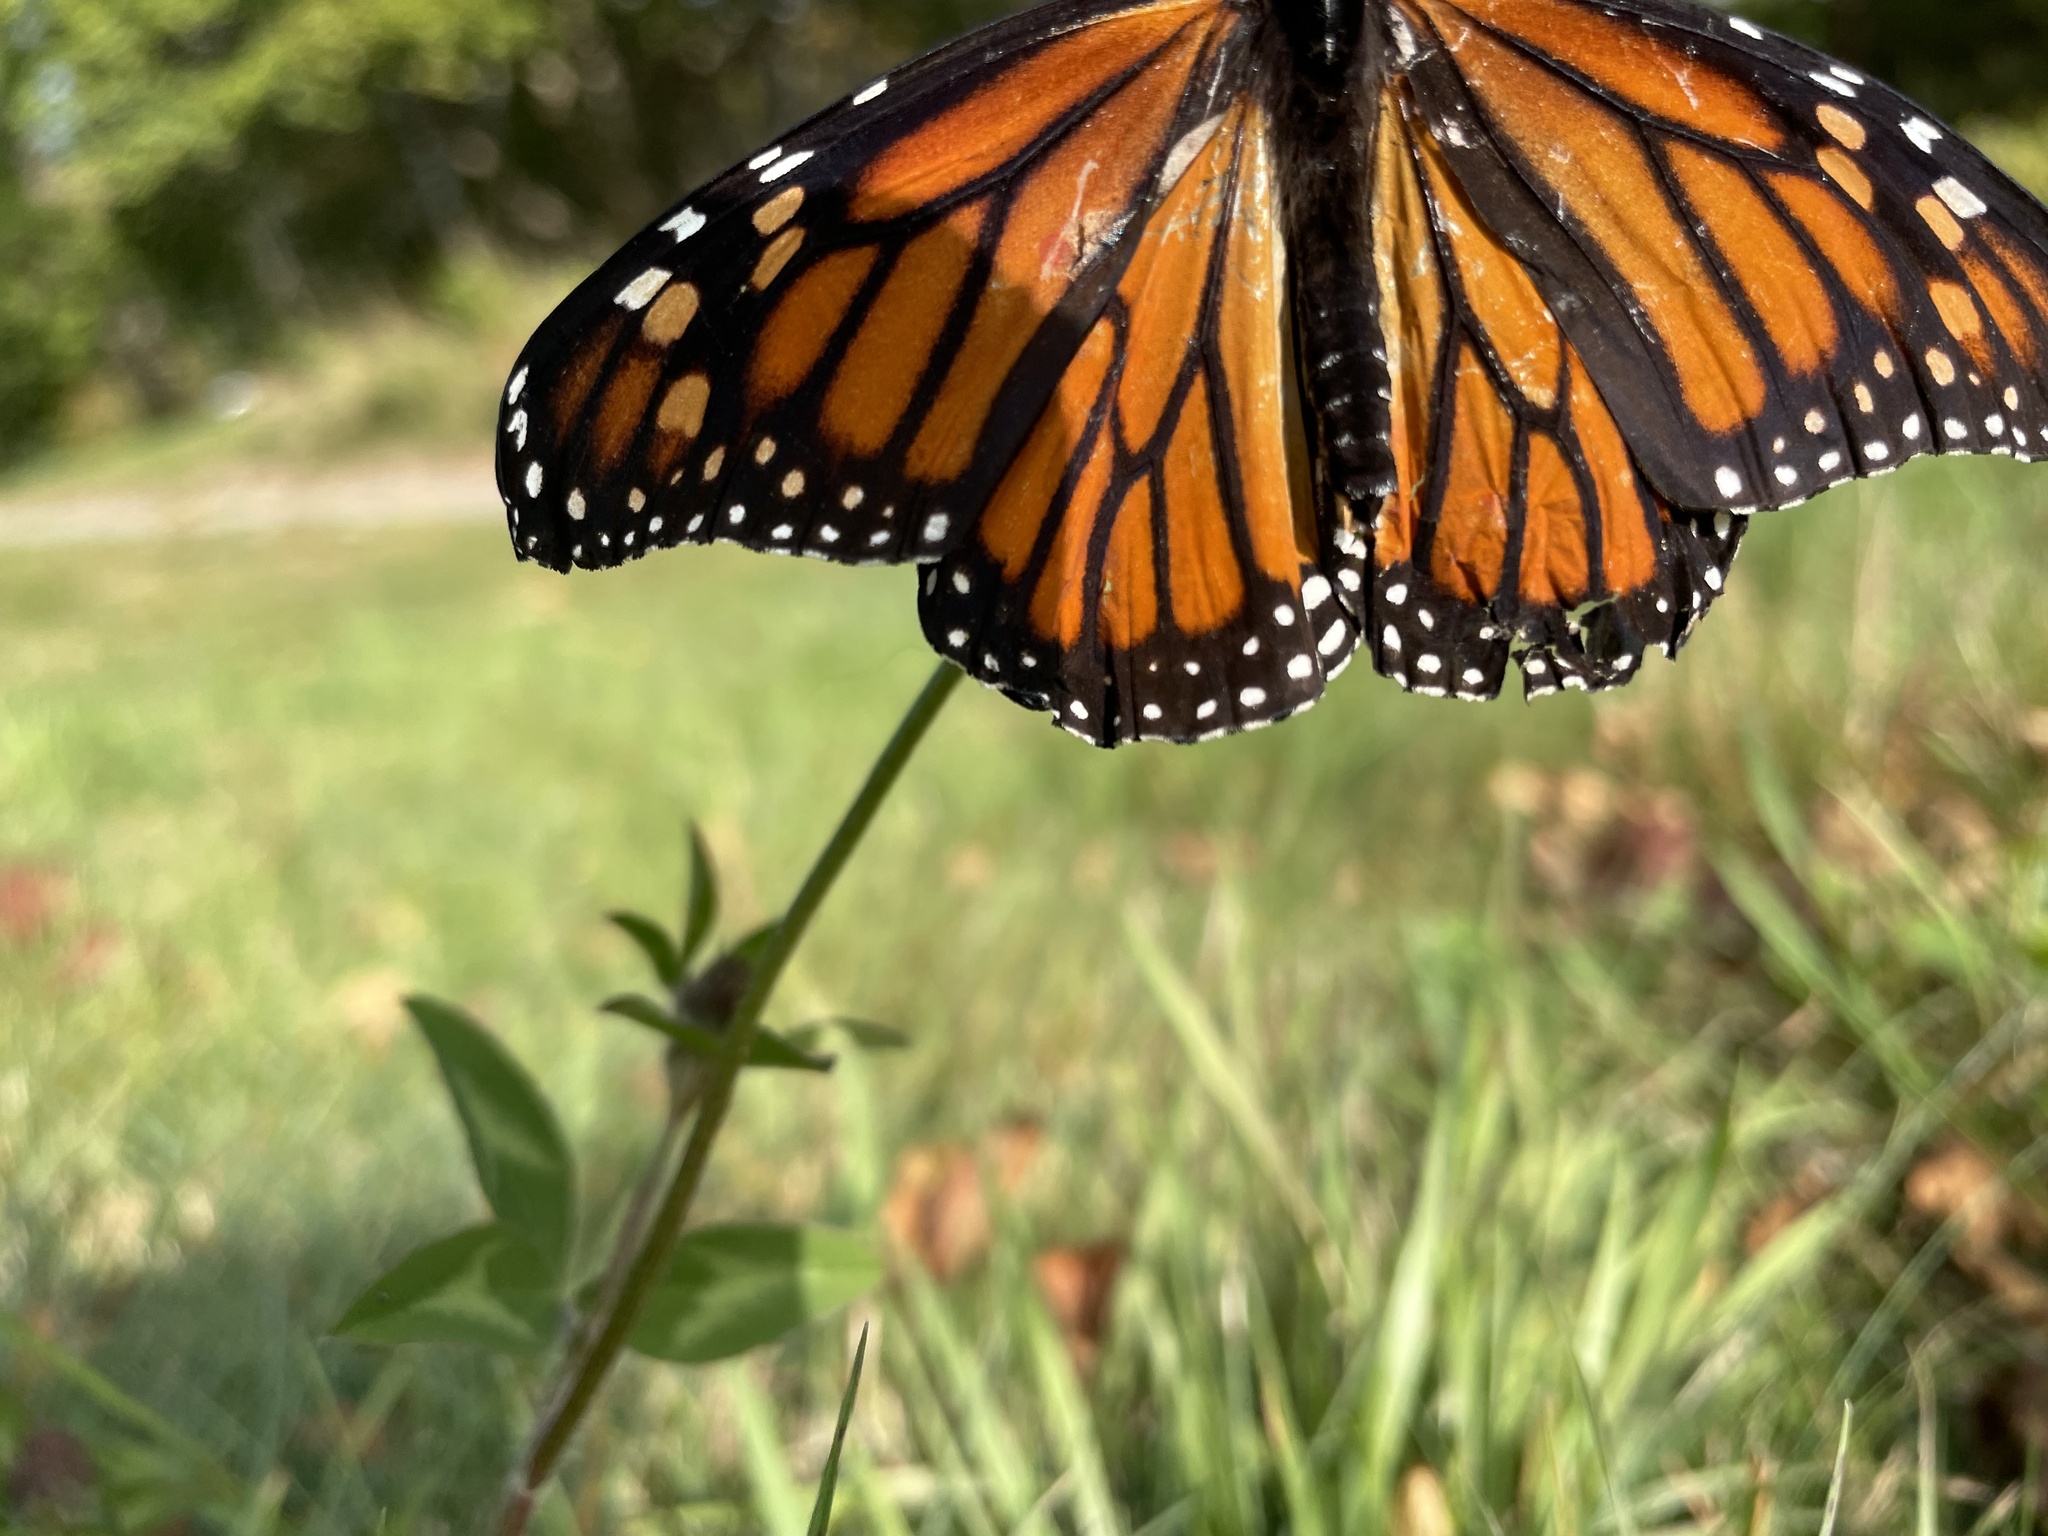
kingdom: Animalia
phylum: Arthropoda
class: Insecta
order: Lepidoptera
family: Nymphalidae
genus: Danaus
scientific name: Danaus plexippus
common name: Monarch
